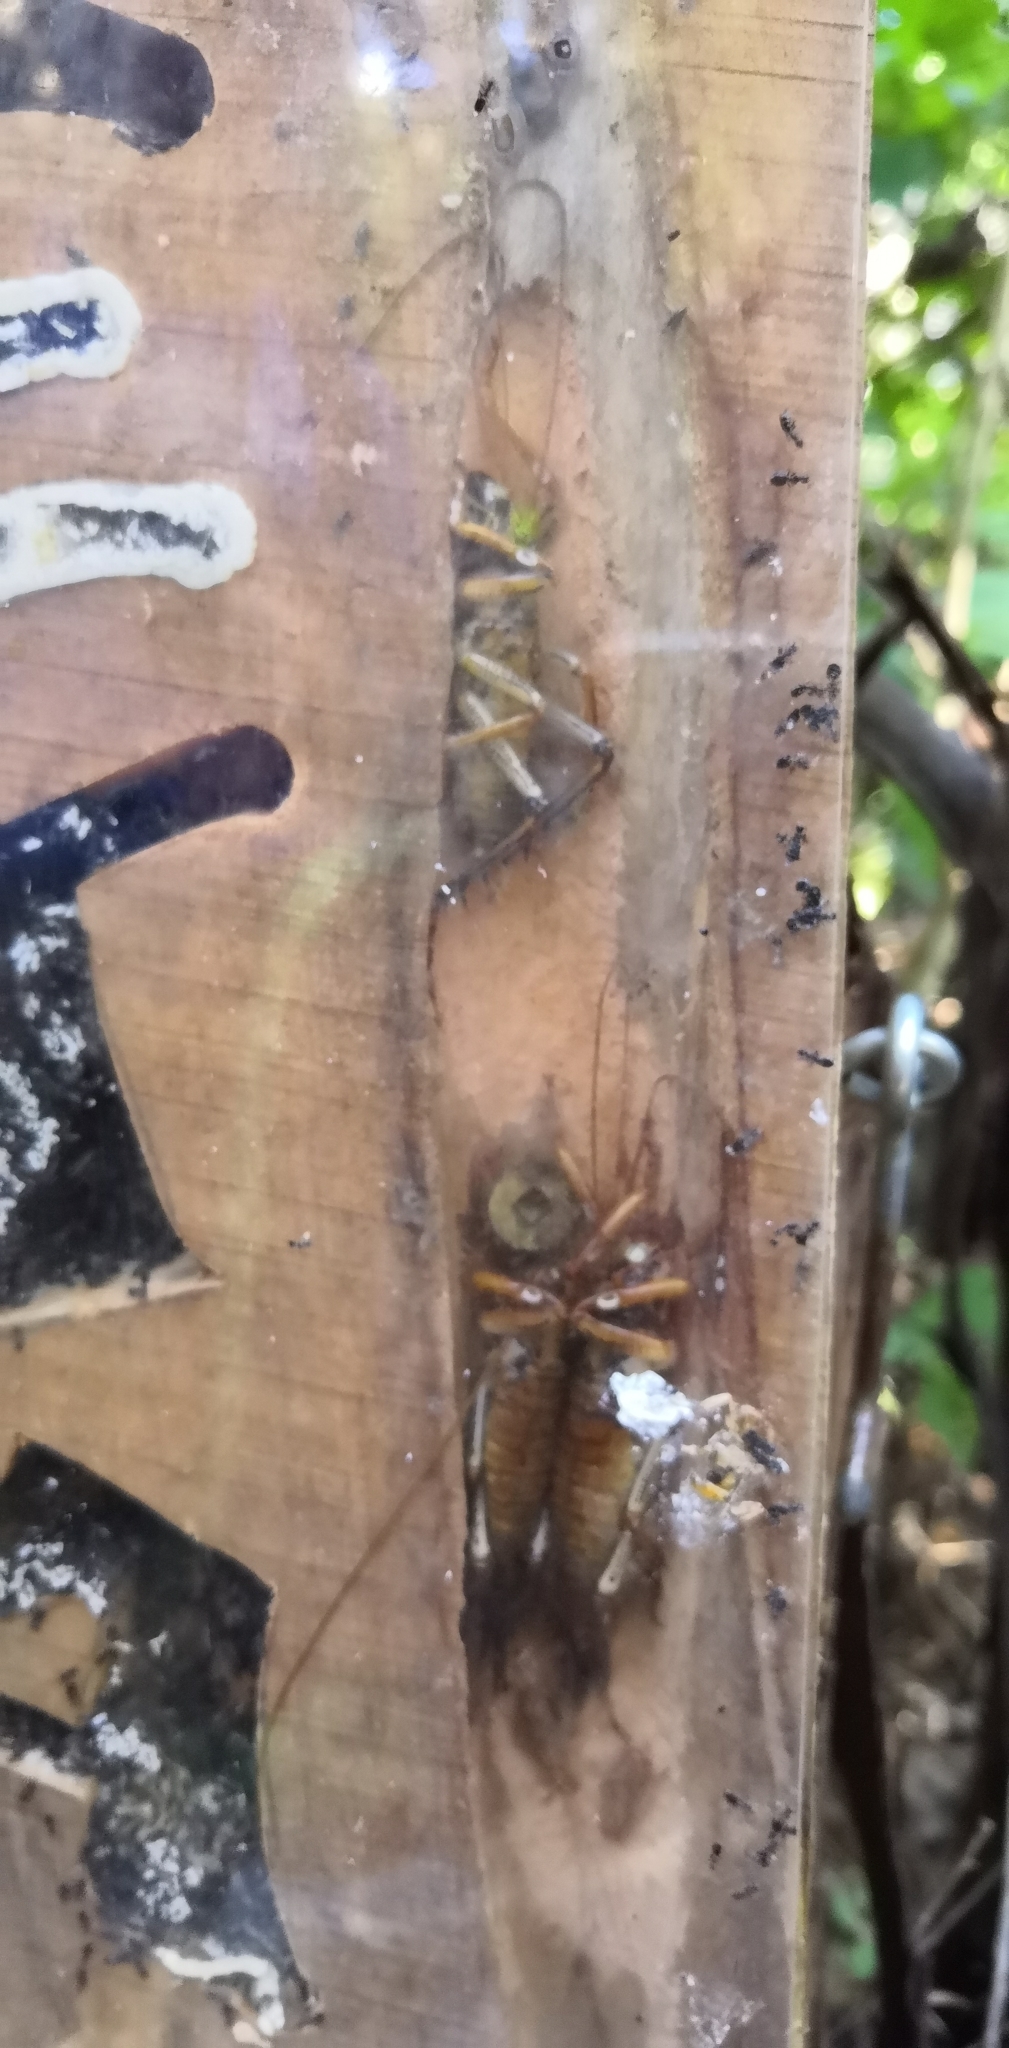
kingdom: Animalia
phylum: Arthropoda
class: Insecta
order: Orthoptera
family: Anostostomatidae
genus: Hemideina
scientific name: Hemideina thoracica
